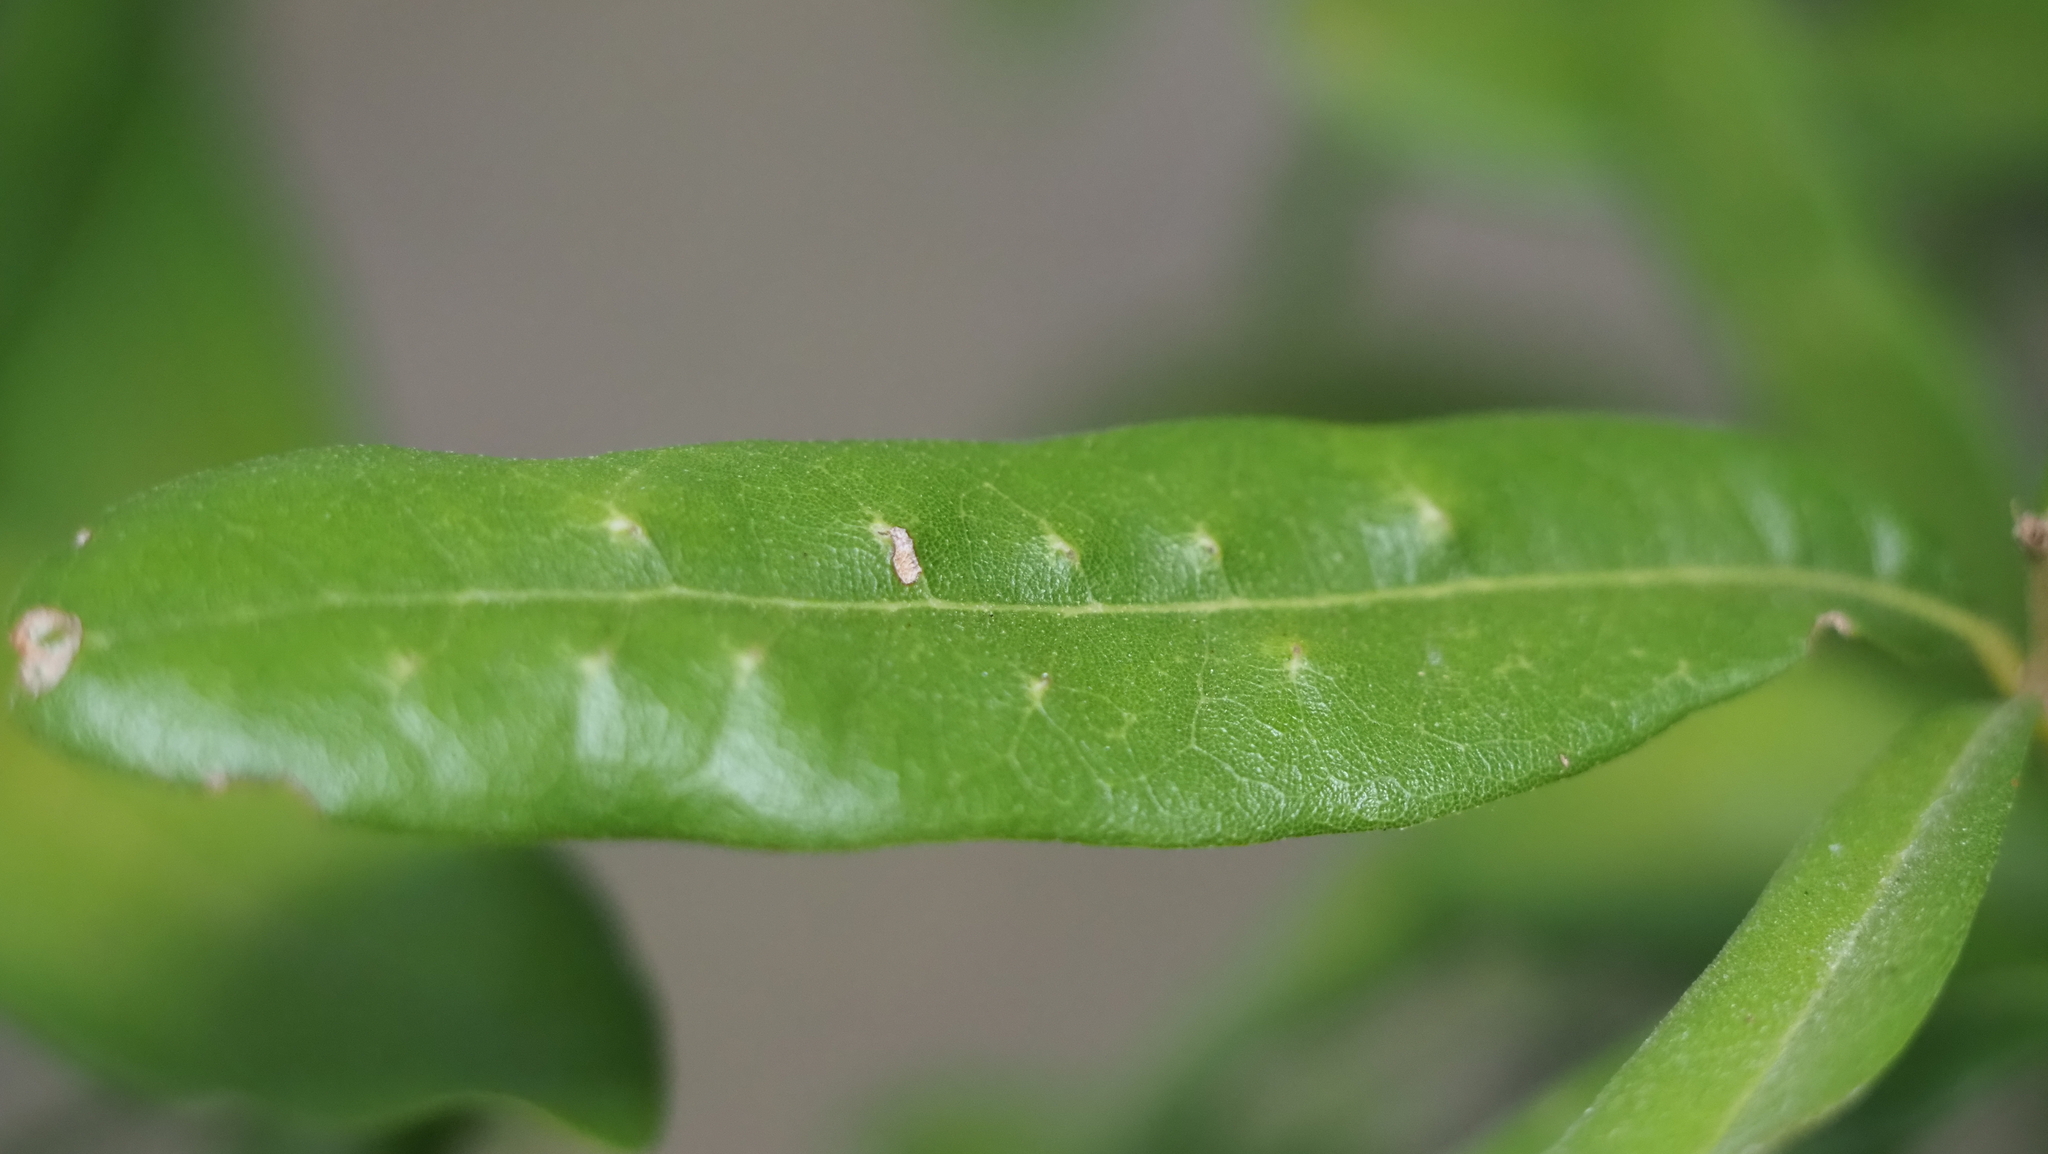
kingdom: Animalia
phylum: Arthropoda
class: Insecta
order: Hymenoptera
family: Cynipidae
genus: Belonocnema
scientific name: Belonocnema kinseyi
